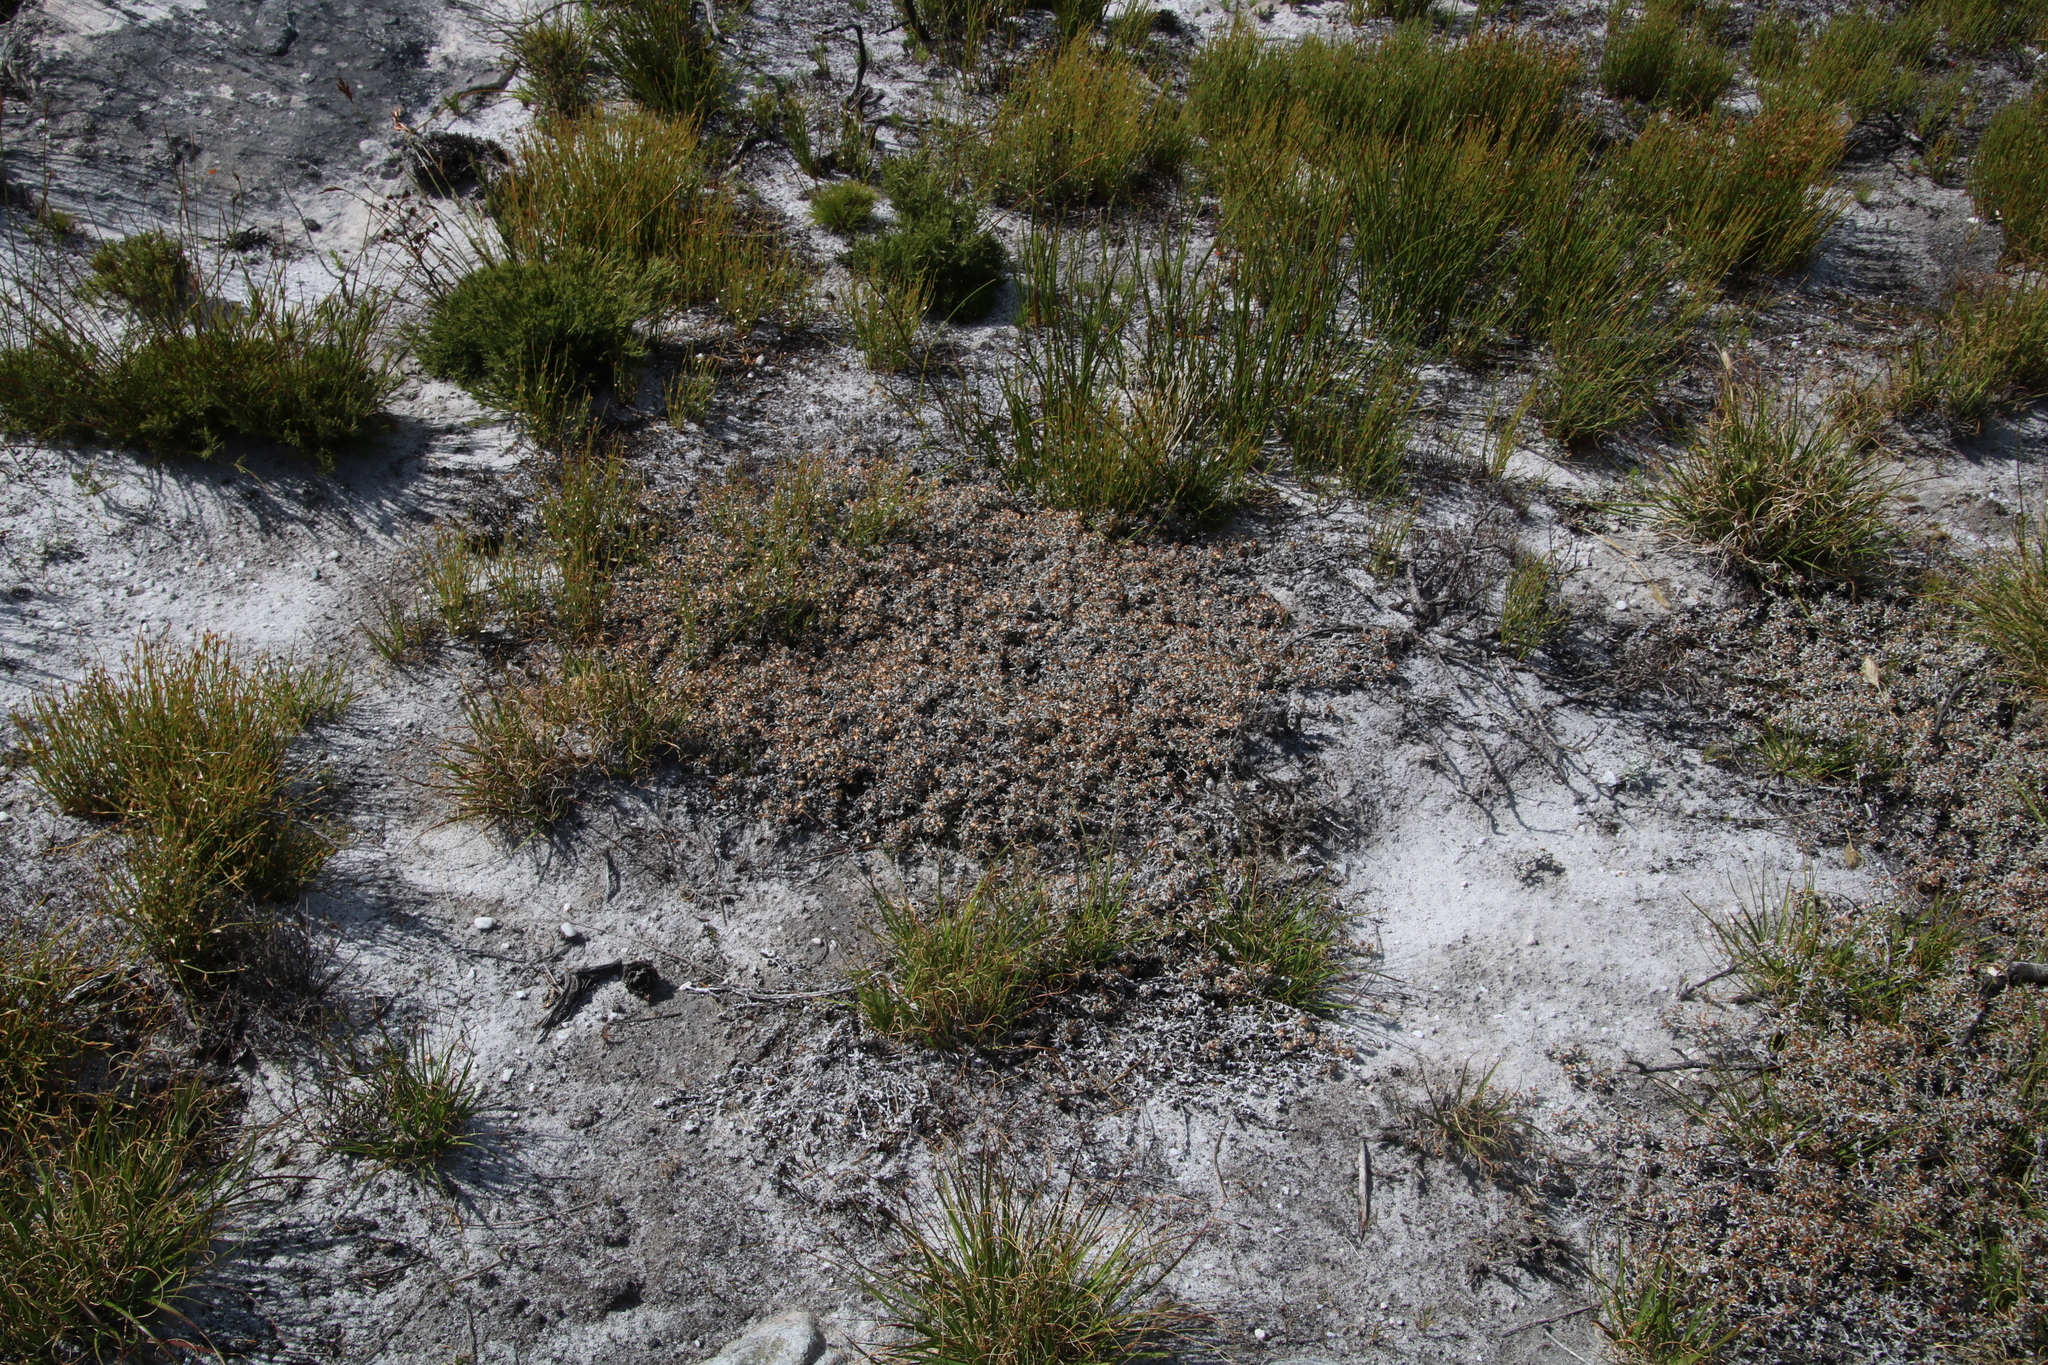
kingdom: Plantae
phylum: Tracheophyta
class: Magnoliopsida
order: Asterales
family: Asteraceae
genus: Helichrysum
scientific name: Helichrysum tinctum
